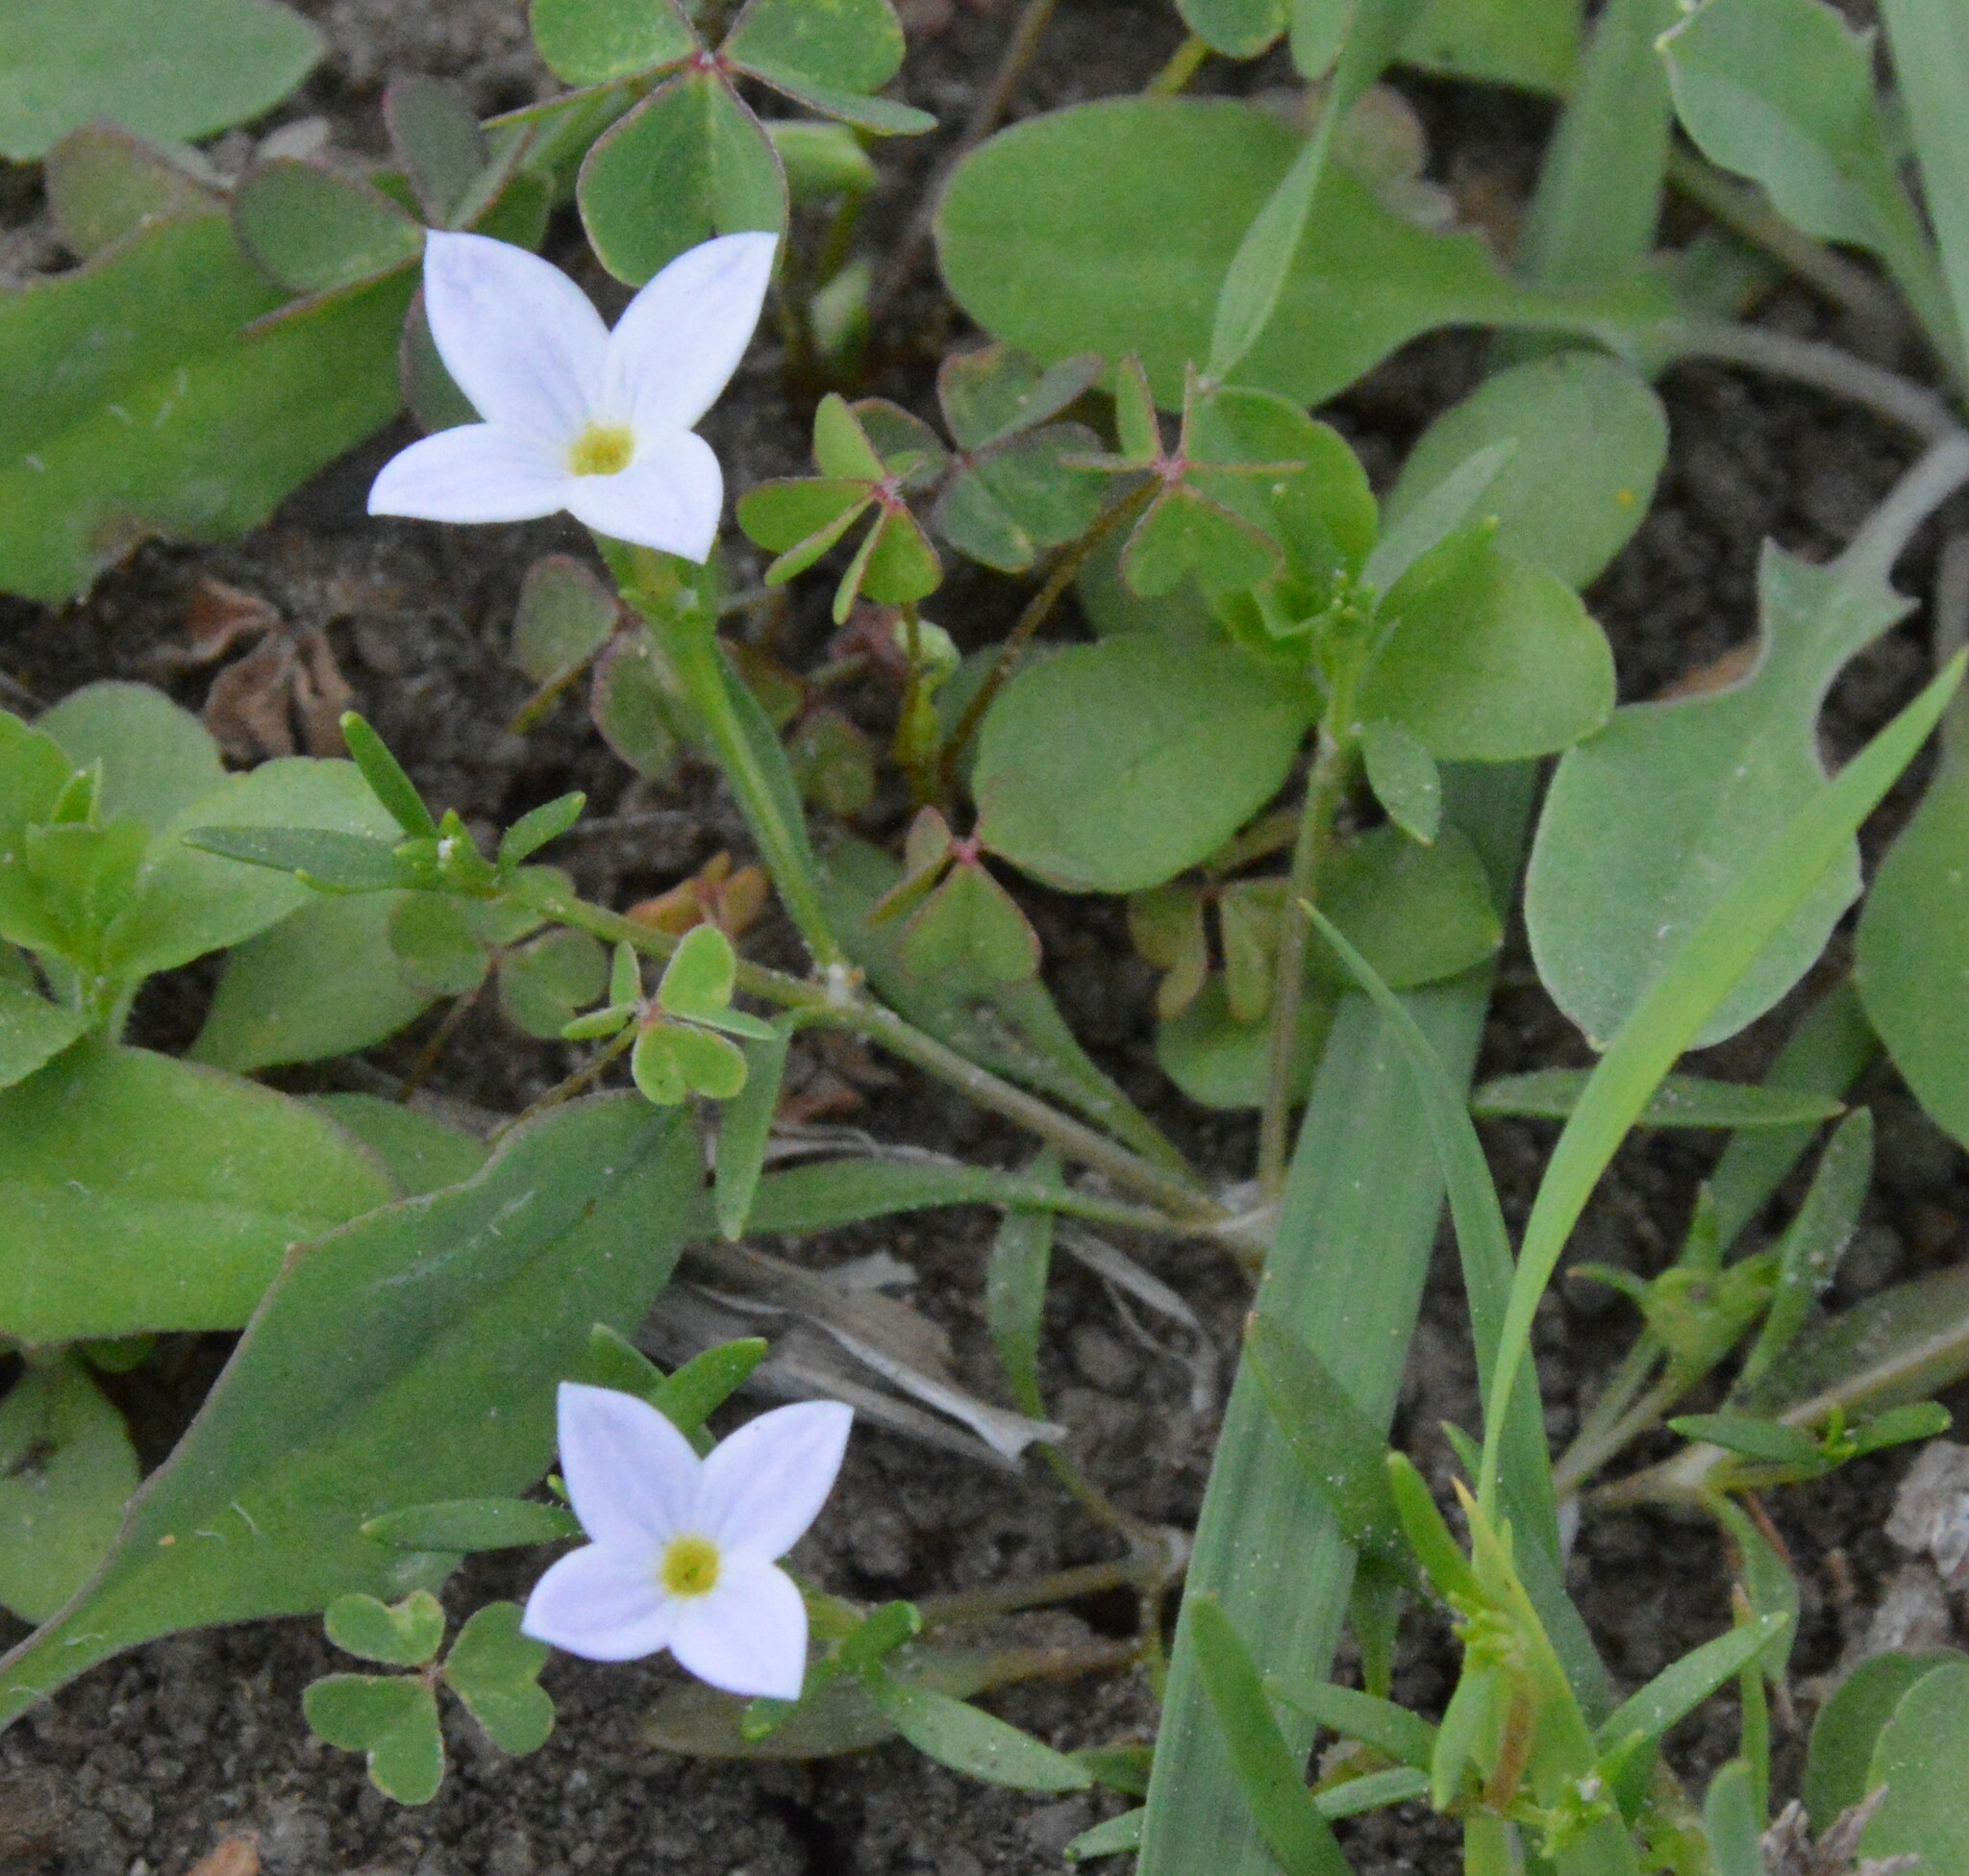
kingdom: Plantae
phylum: Tracheophyta
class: Magnoliopsida
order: Gentianales
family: Rubiaceae
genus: Houstonia
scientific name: Houstonia rosea
